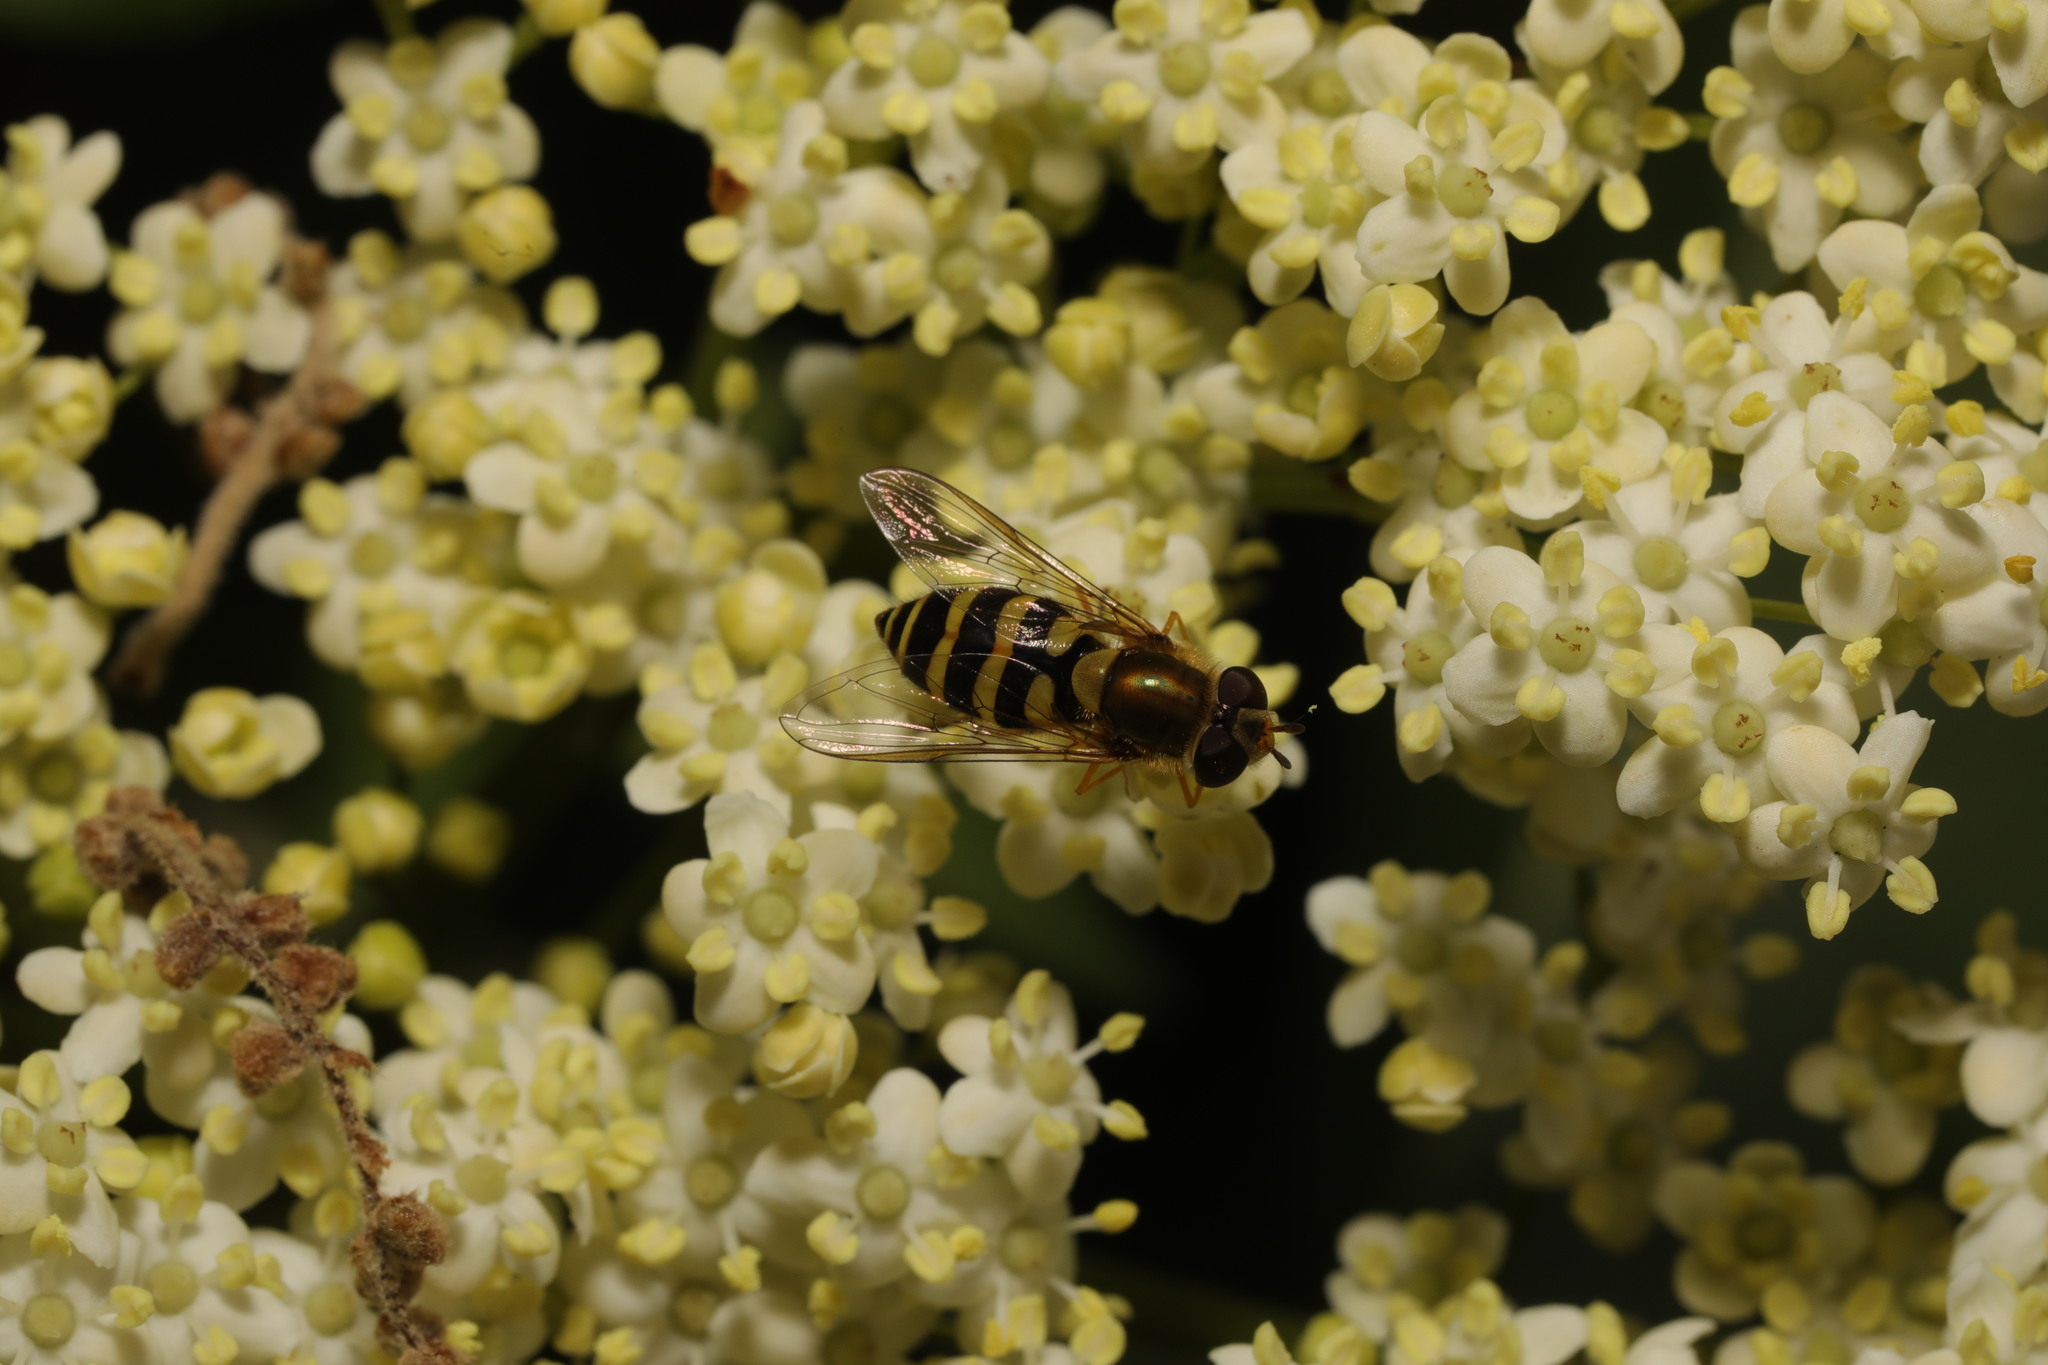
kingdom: Animalia
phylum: Arthropoda
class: Insecta
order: Diptera
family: Syrphidae
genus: Syrphus
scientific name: Syrphus
